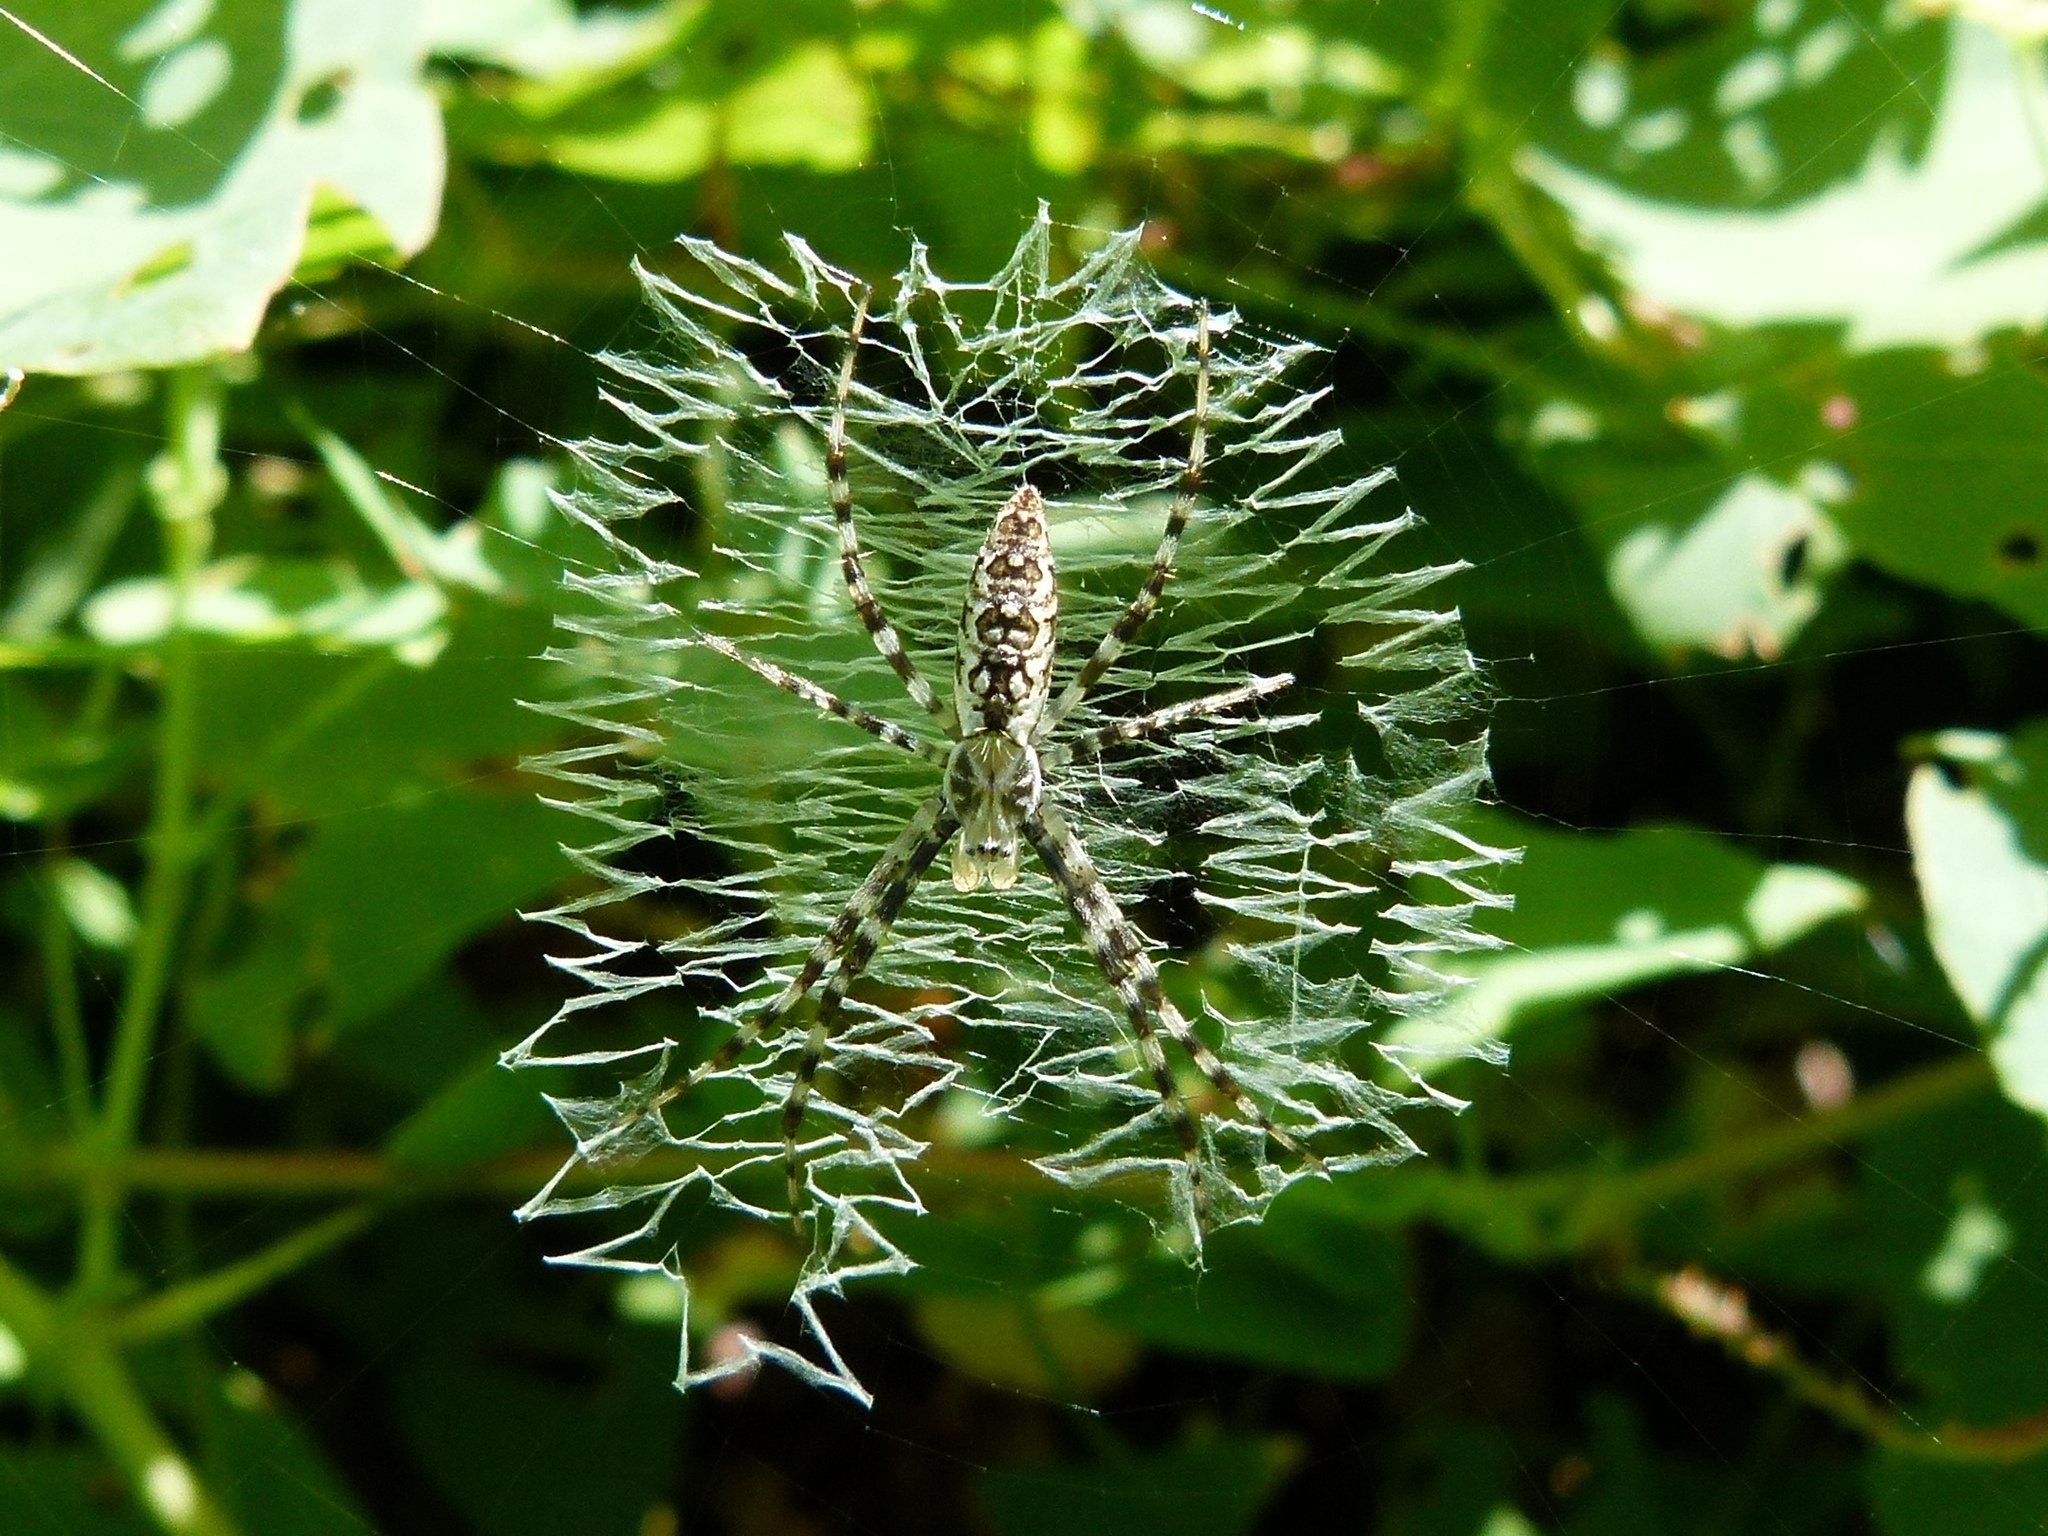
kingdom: Animalia
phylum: Arthropoda
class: Arachnida
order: Araneae
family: Araneidae
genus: Argiope
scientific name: Argiope aurantia
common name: Orb weavers
